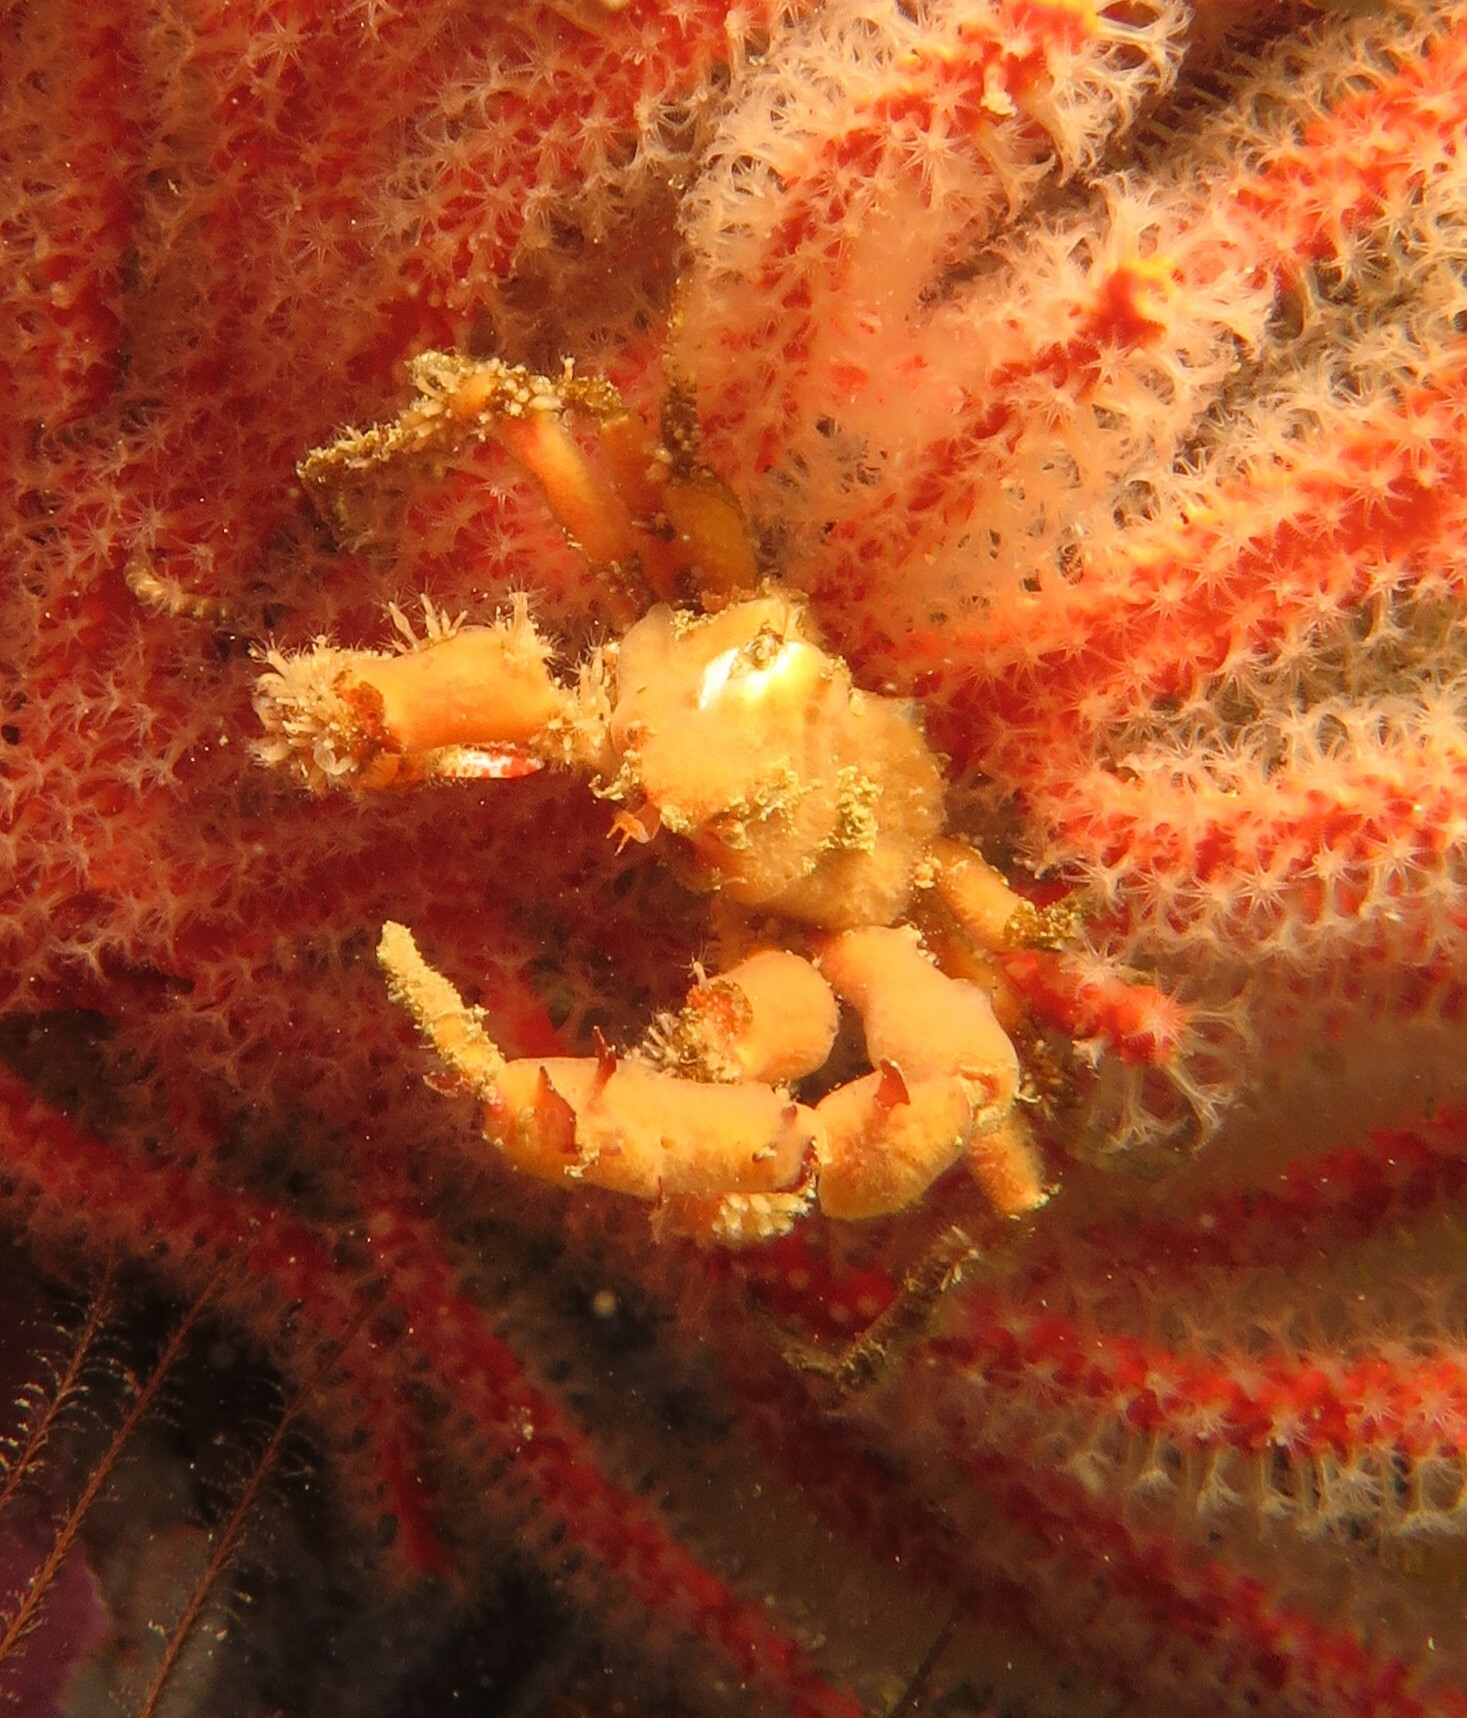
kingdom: Animalia
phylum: Arthropoda
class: Malacostraca
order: Decapoda
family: Inachidae
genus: Achaeopsis
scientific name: Achaeopsis spinulosa
